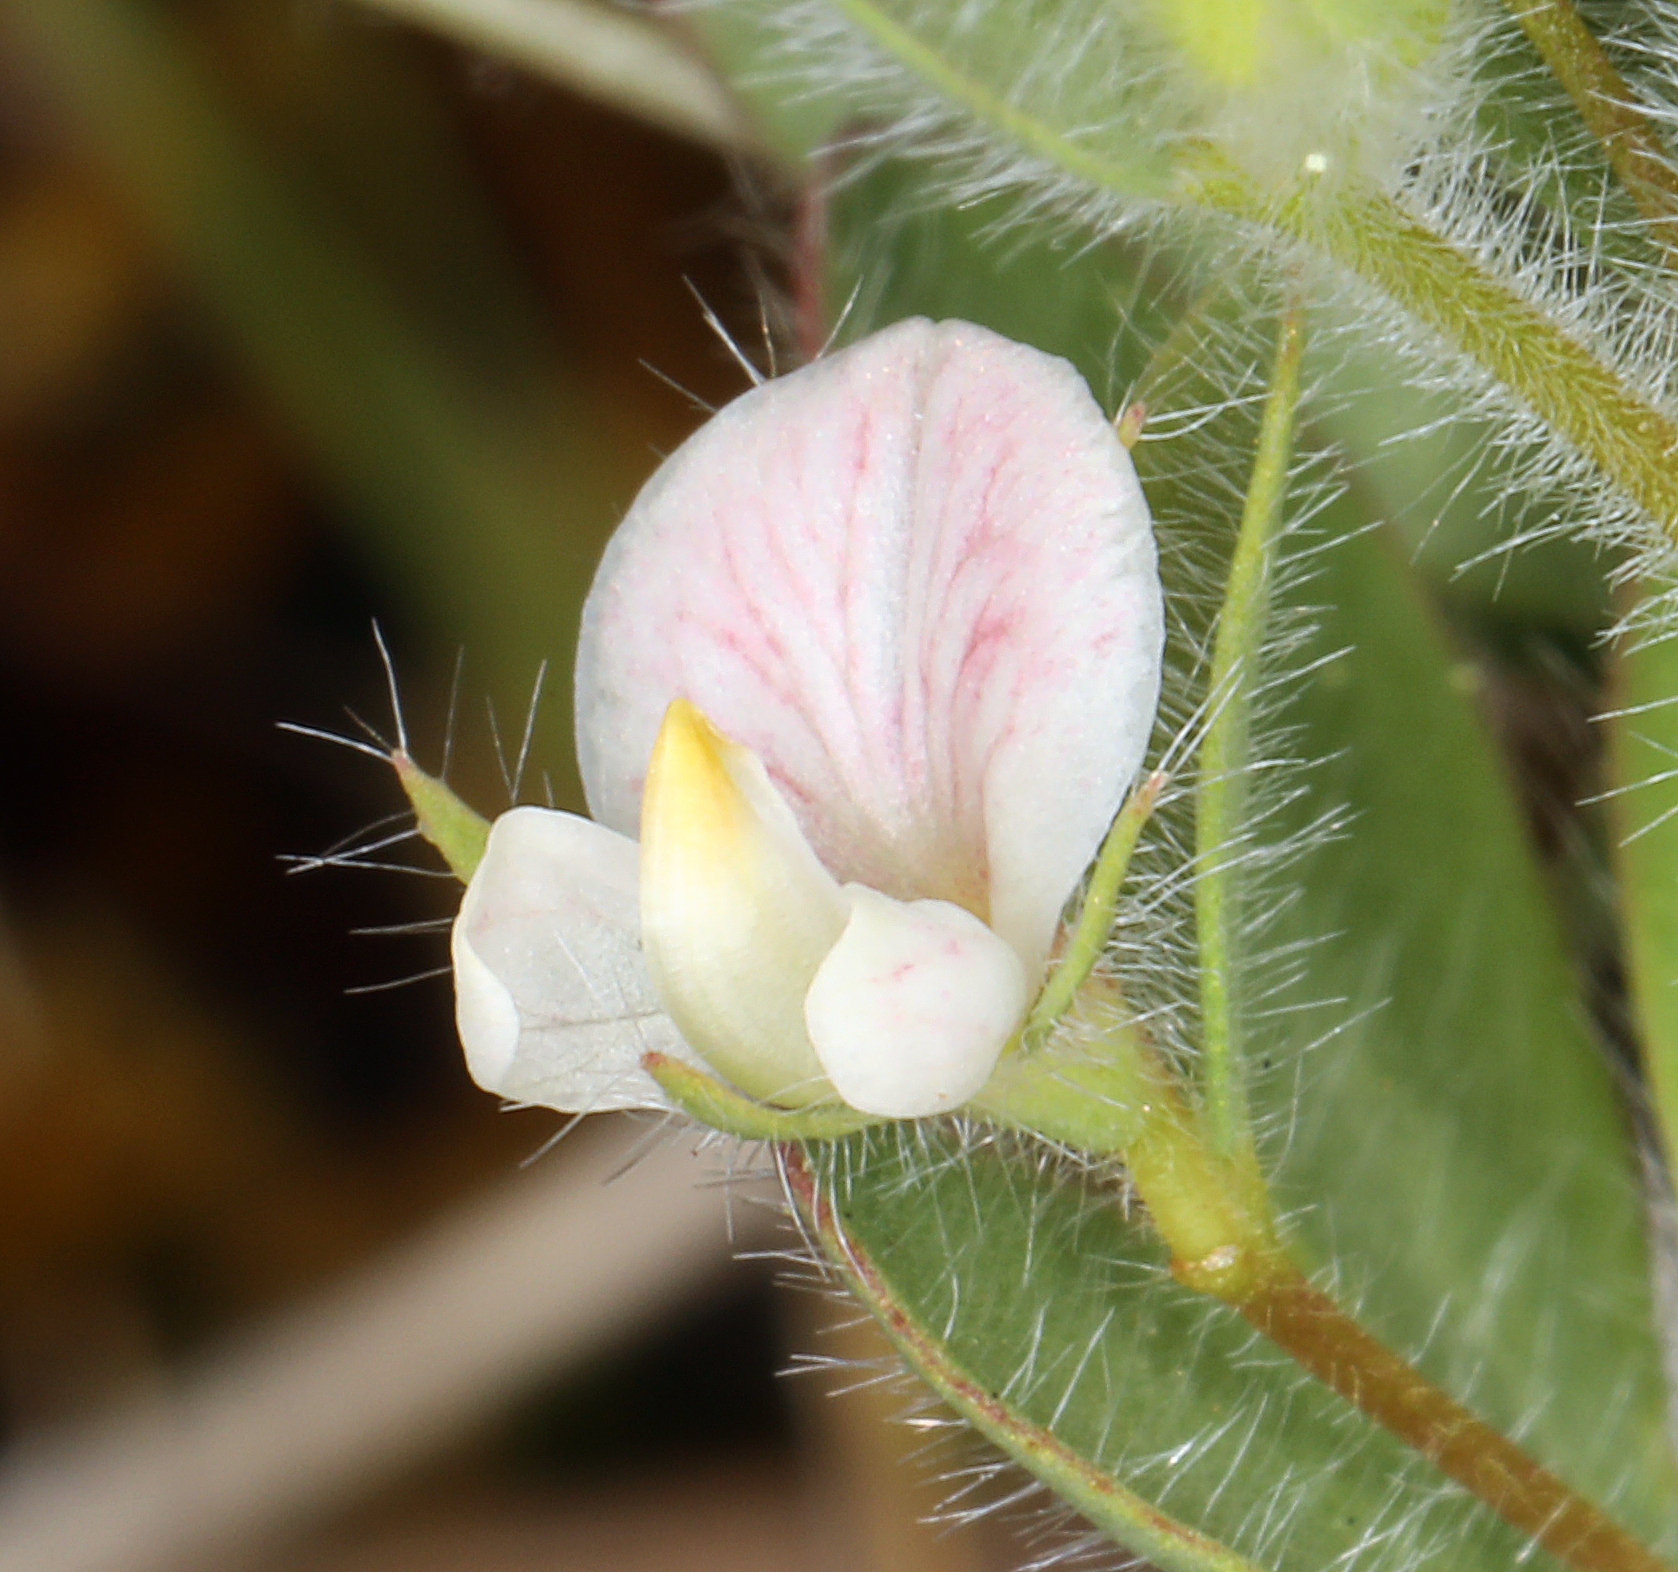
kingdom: Plantae
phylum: Tracheophyta
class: Magnoliopsida
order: Fabales
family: Fabaceae
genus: Acmispon
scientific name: Acmispon americanus
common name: American bird's-foot trefoil
